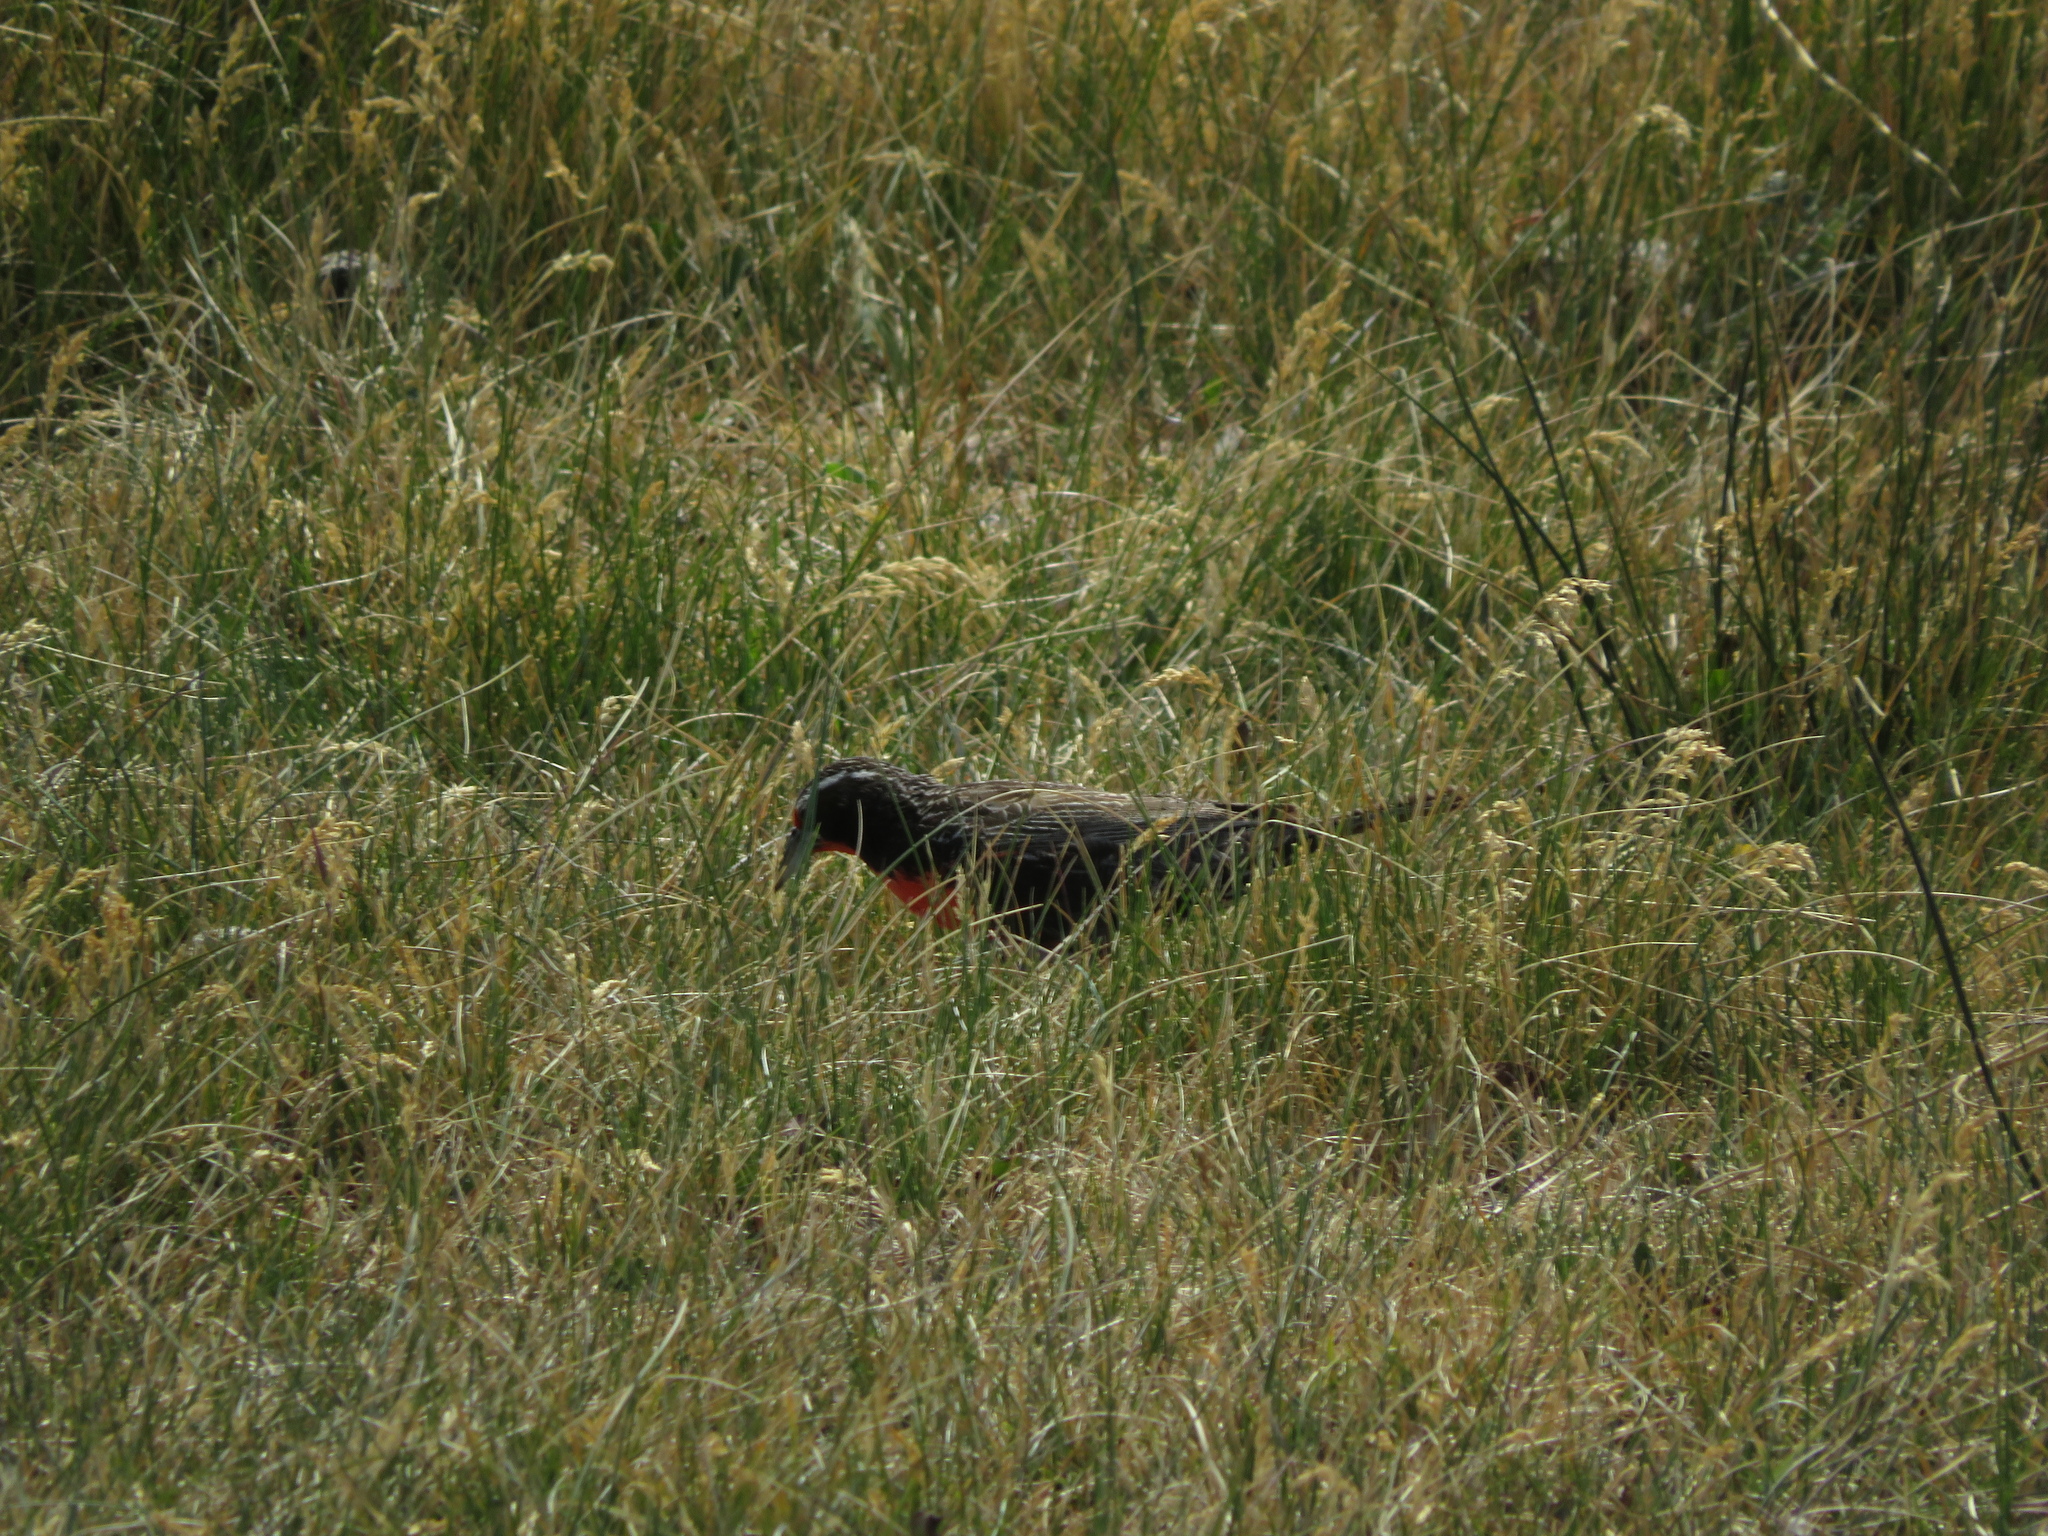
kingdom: Animalia
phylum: Chordata
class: Aves
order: Passeriformes
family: Icteridae
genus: Sturnella
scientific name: Sturnella loyca
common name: Long-tailed meadowlark
